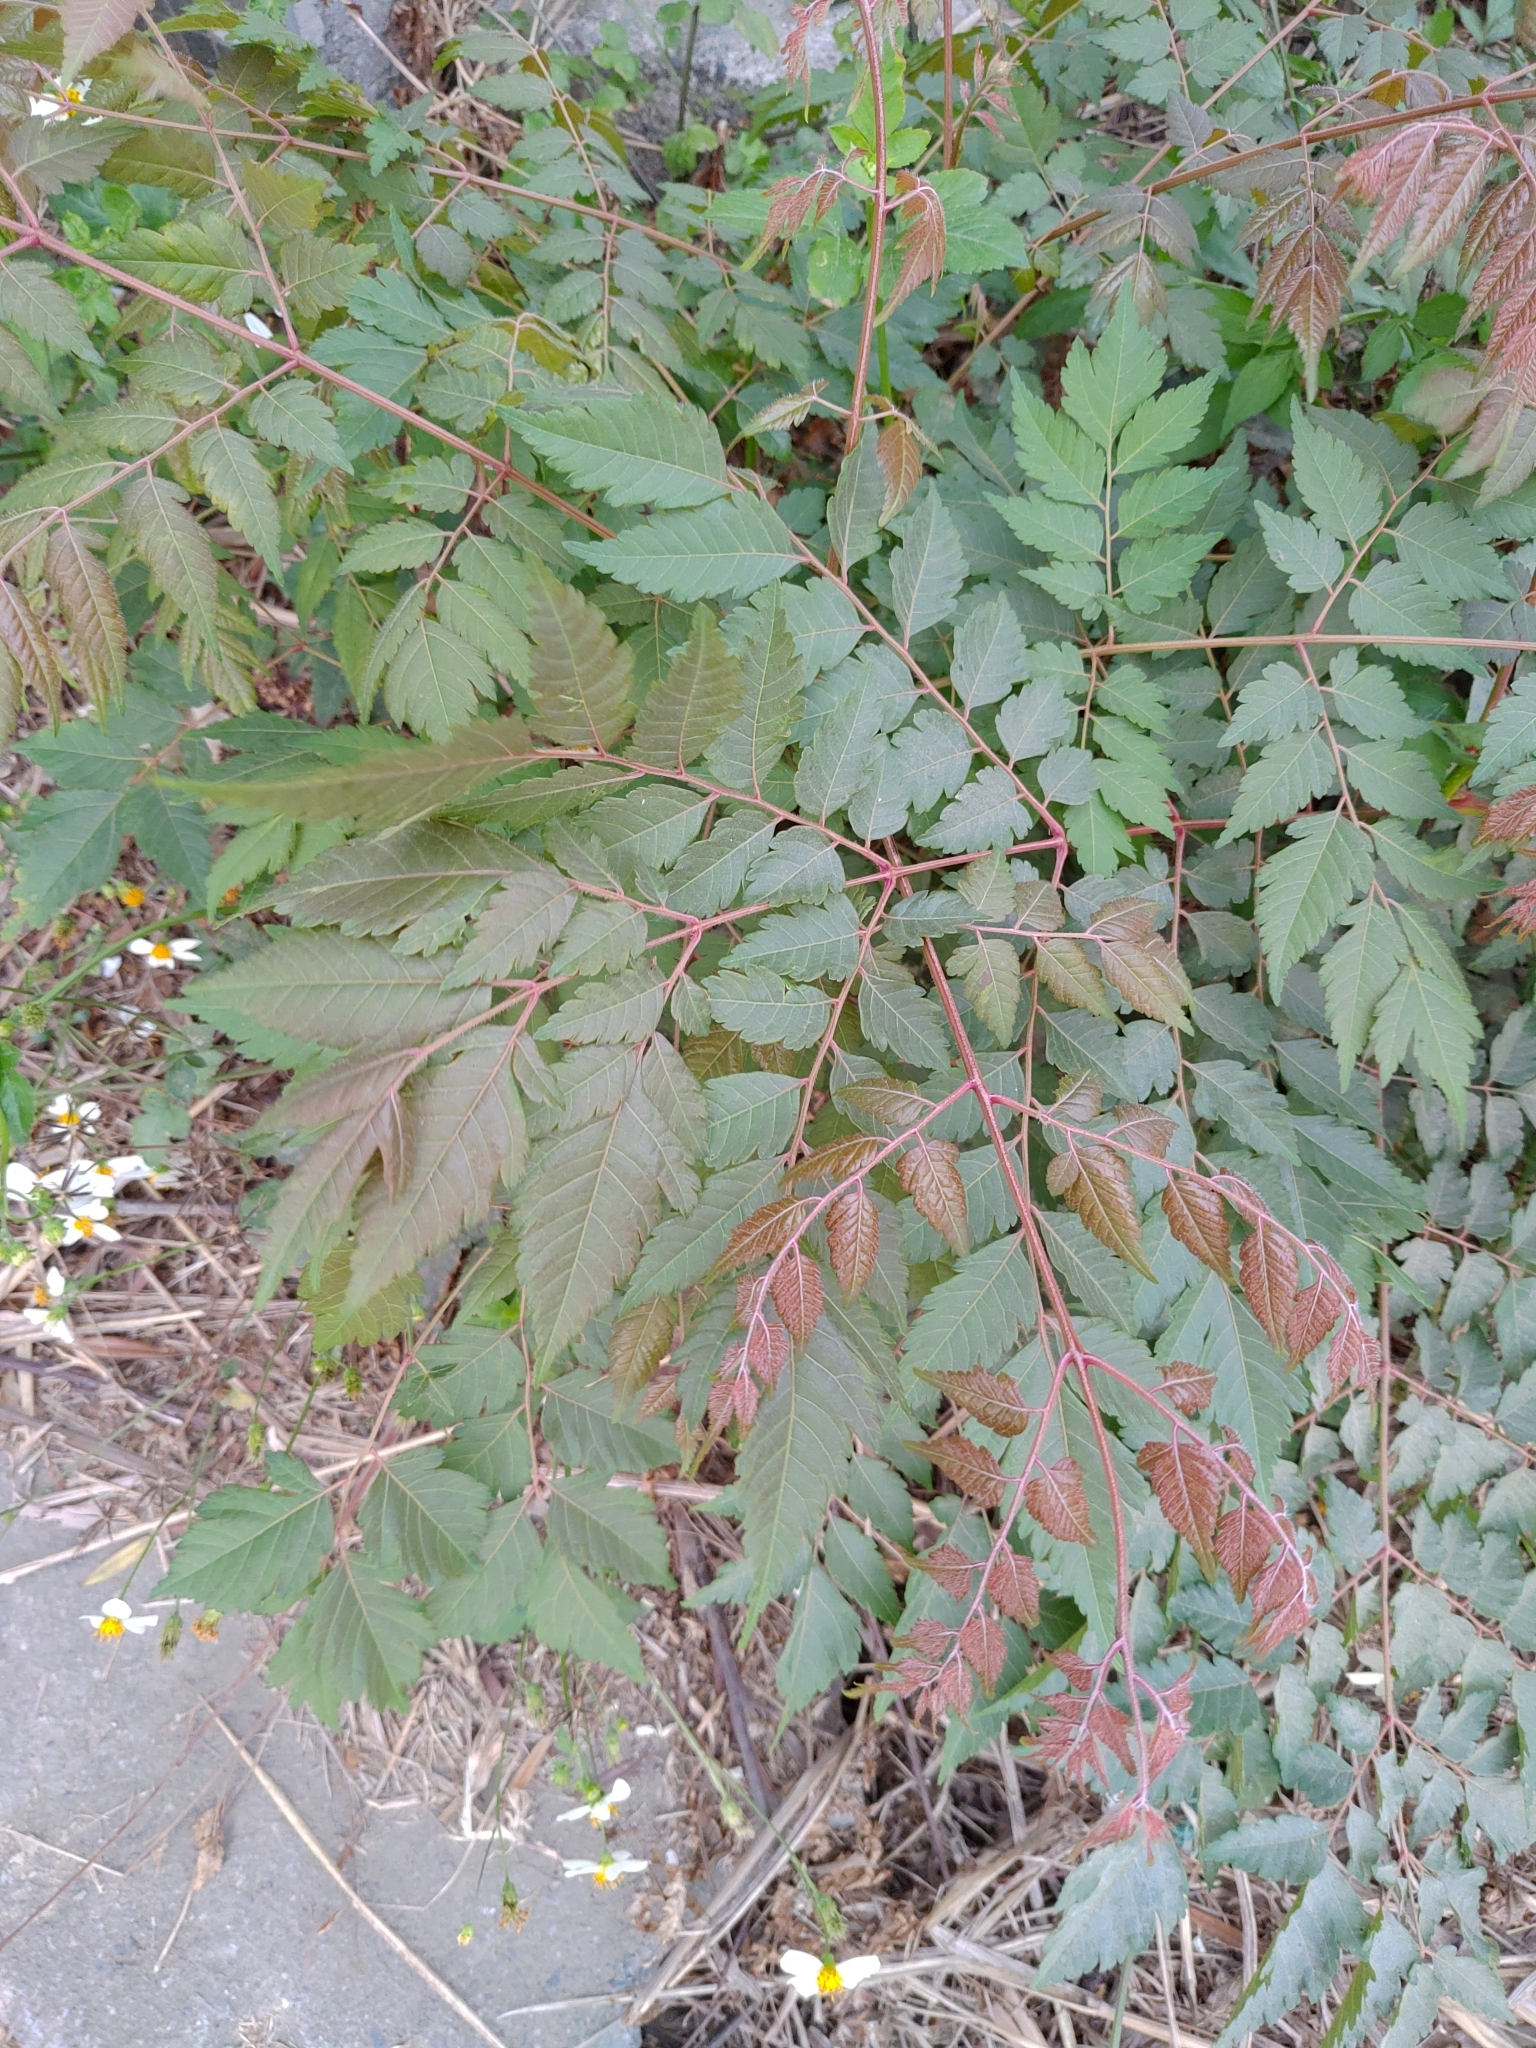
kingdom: Plantae
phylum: Tracheophyta
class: Magnoliopsida
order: Sapindales
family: Sapindaceae
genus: Koelreuteria
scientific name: Koelreuteria elegans
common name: Chinese flame tree
